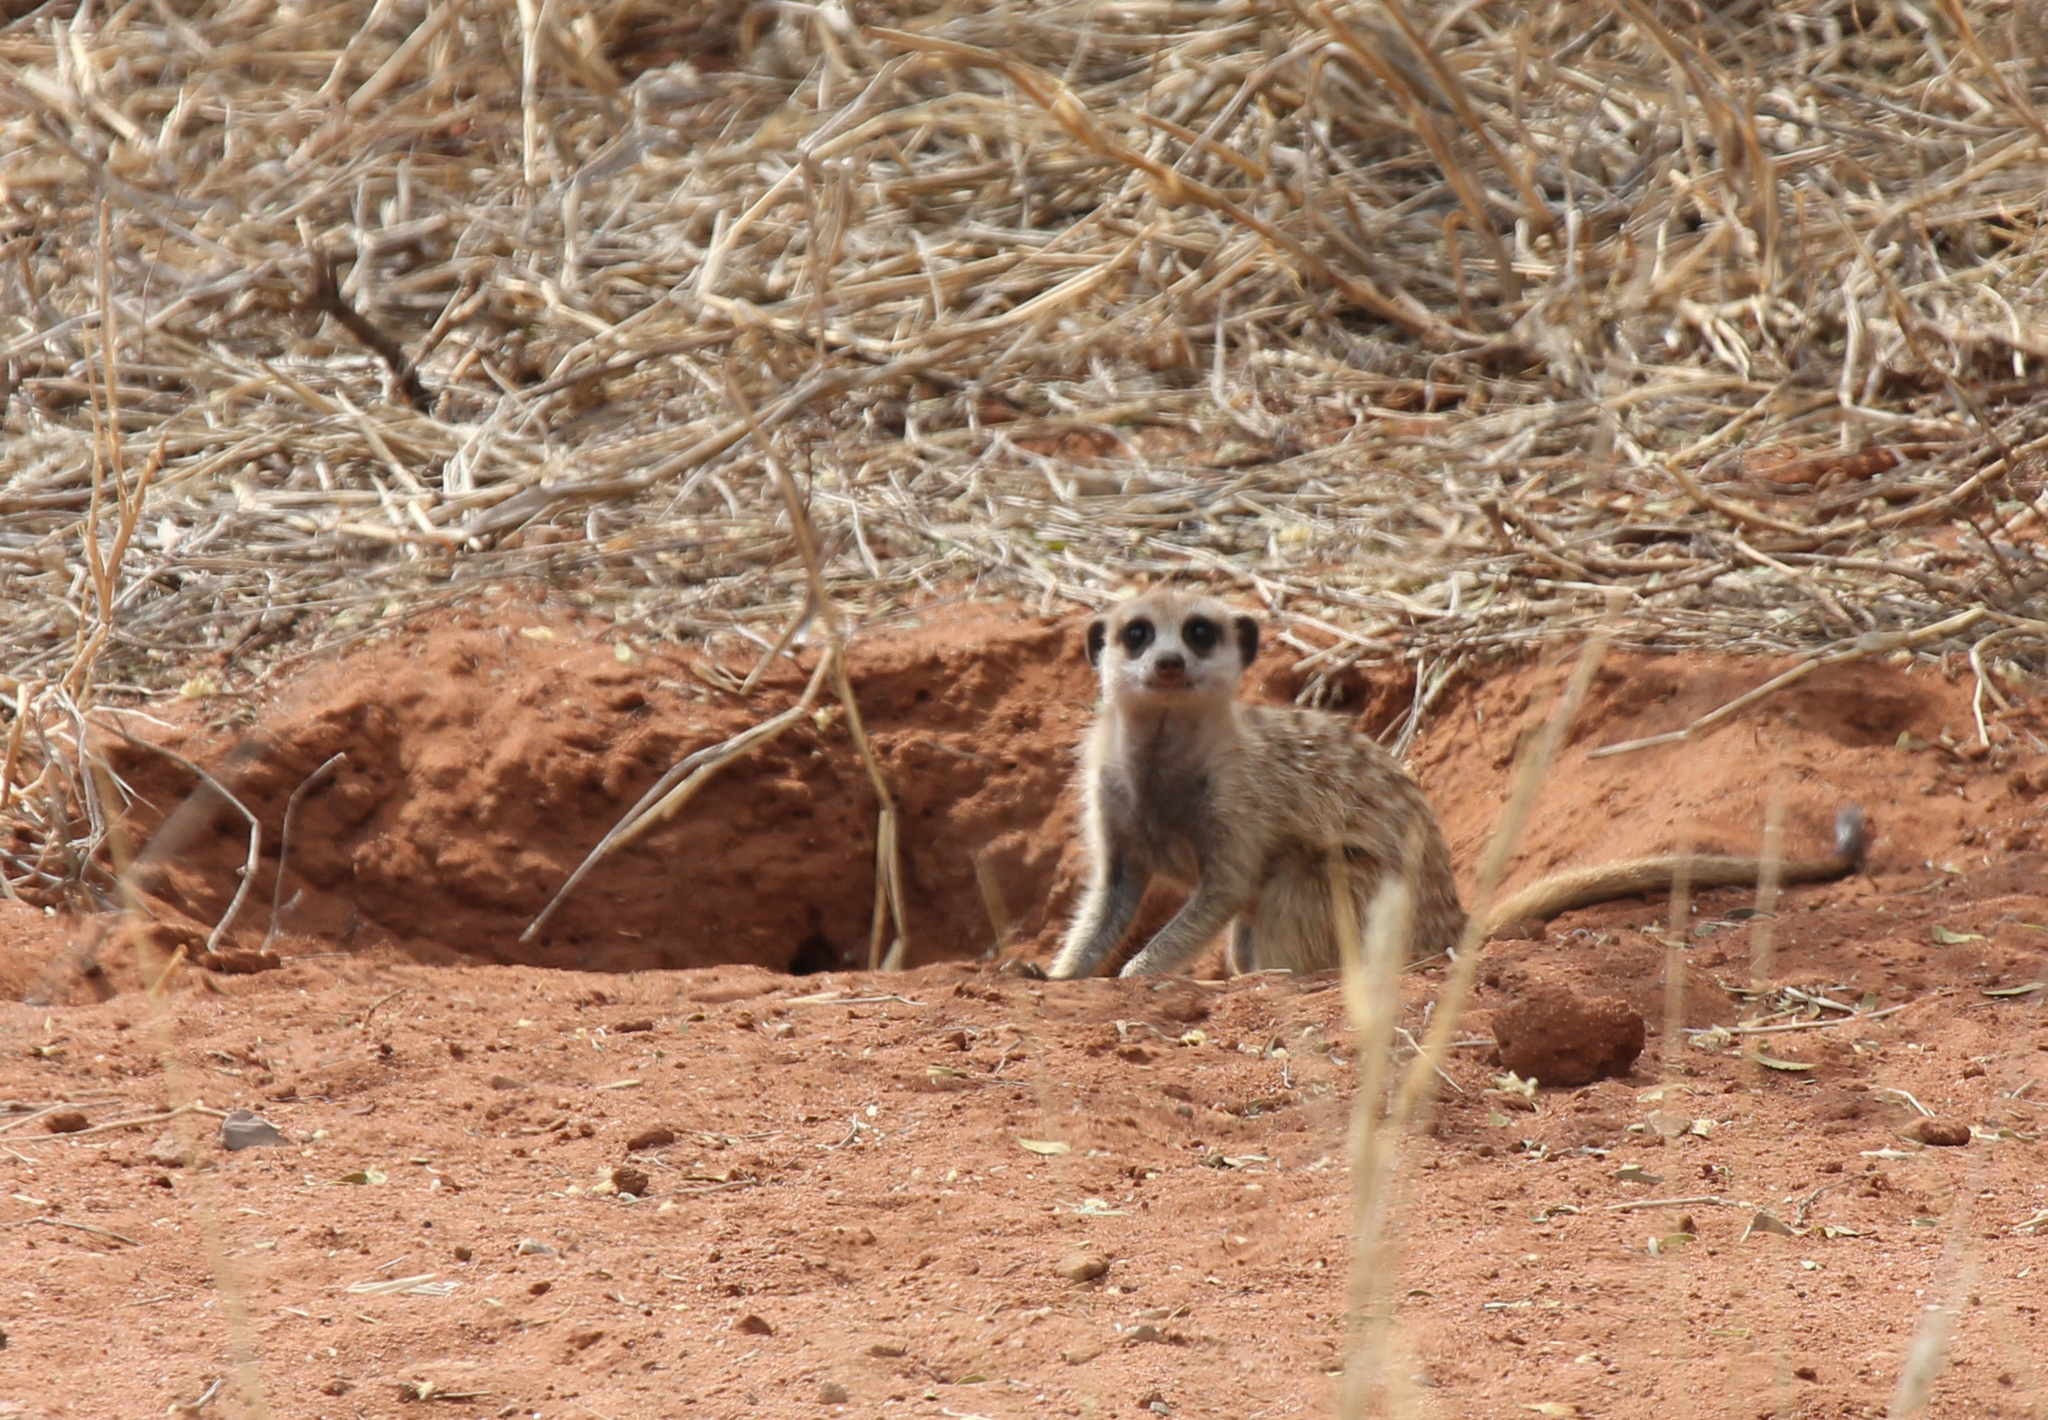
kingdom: Animalia
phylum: Chordata
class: Mammalia
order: Carnivora
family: Herpestidae
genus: Suricata
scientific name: Suricata suricatta
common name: Meerkat
